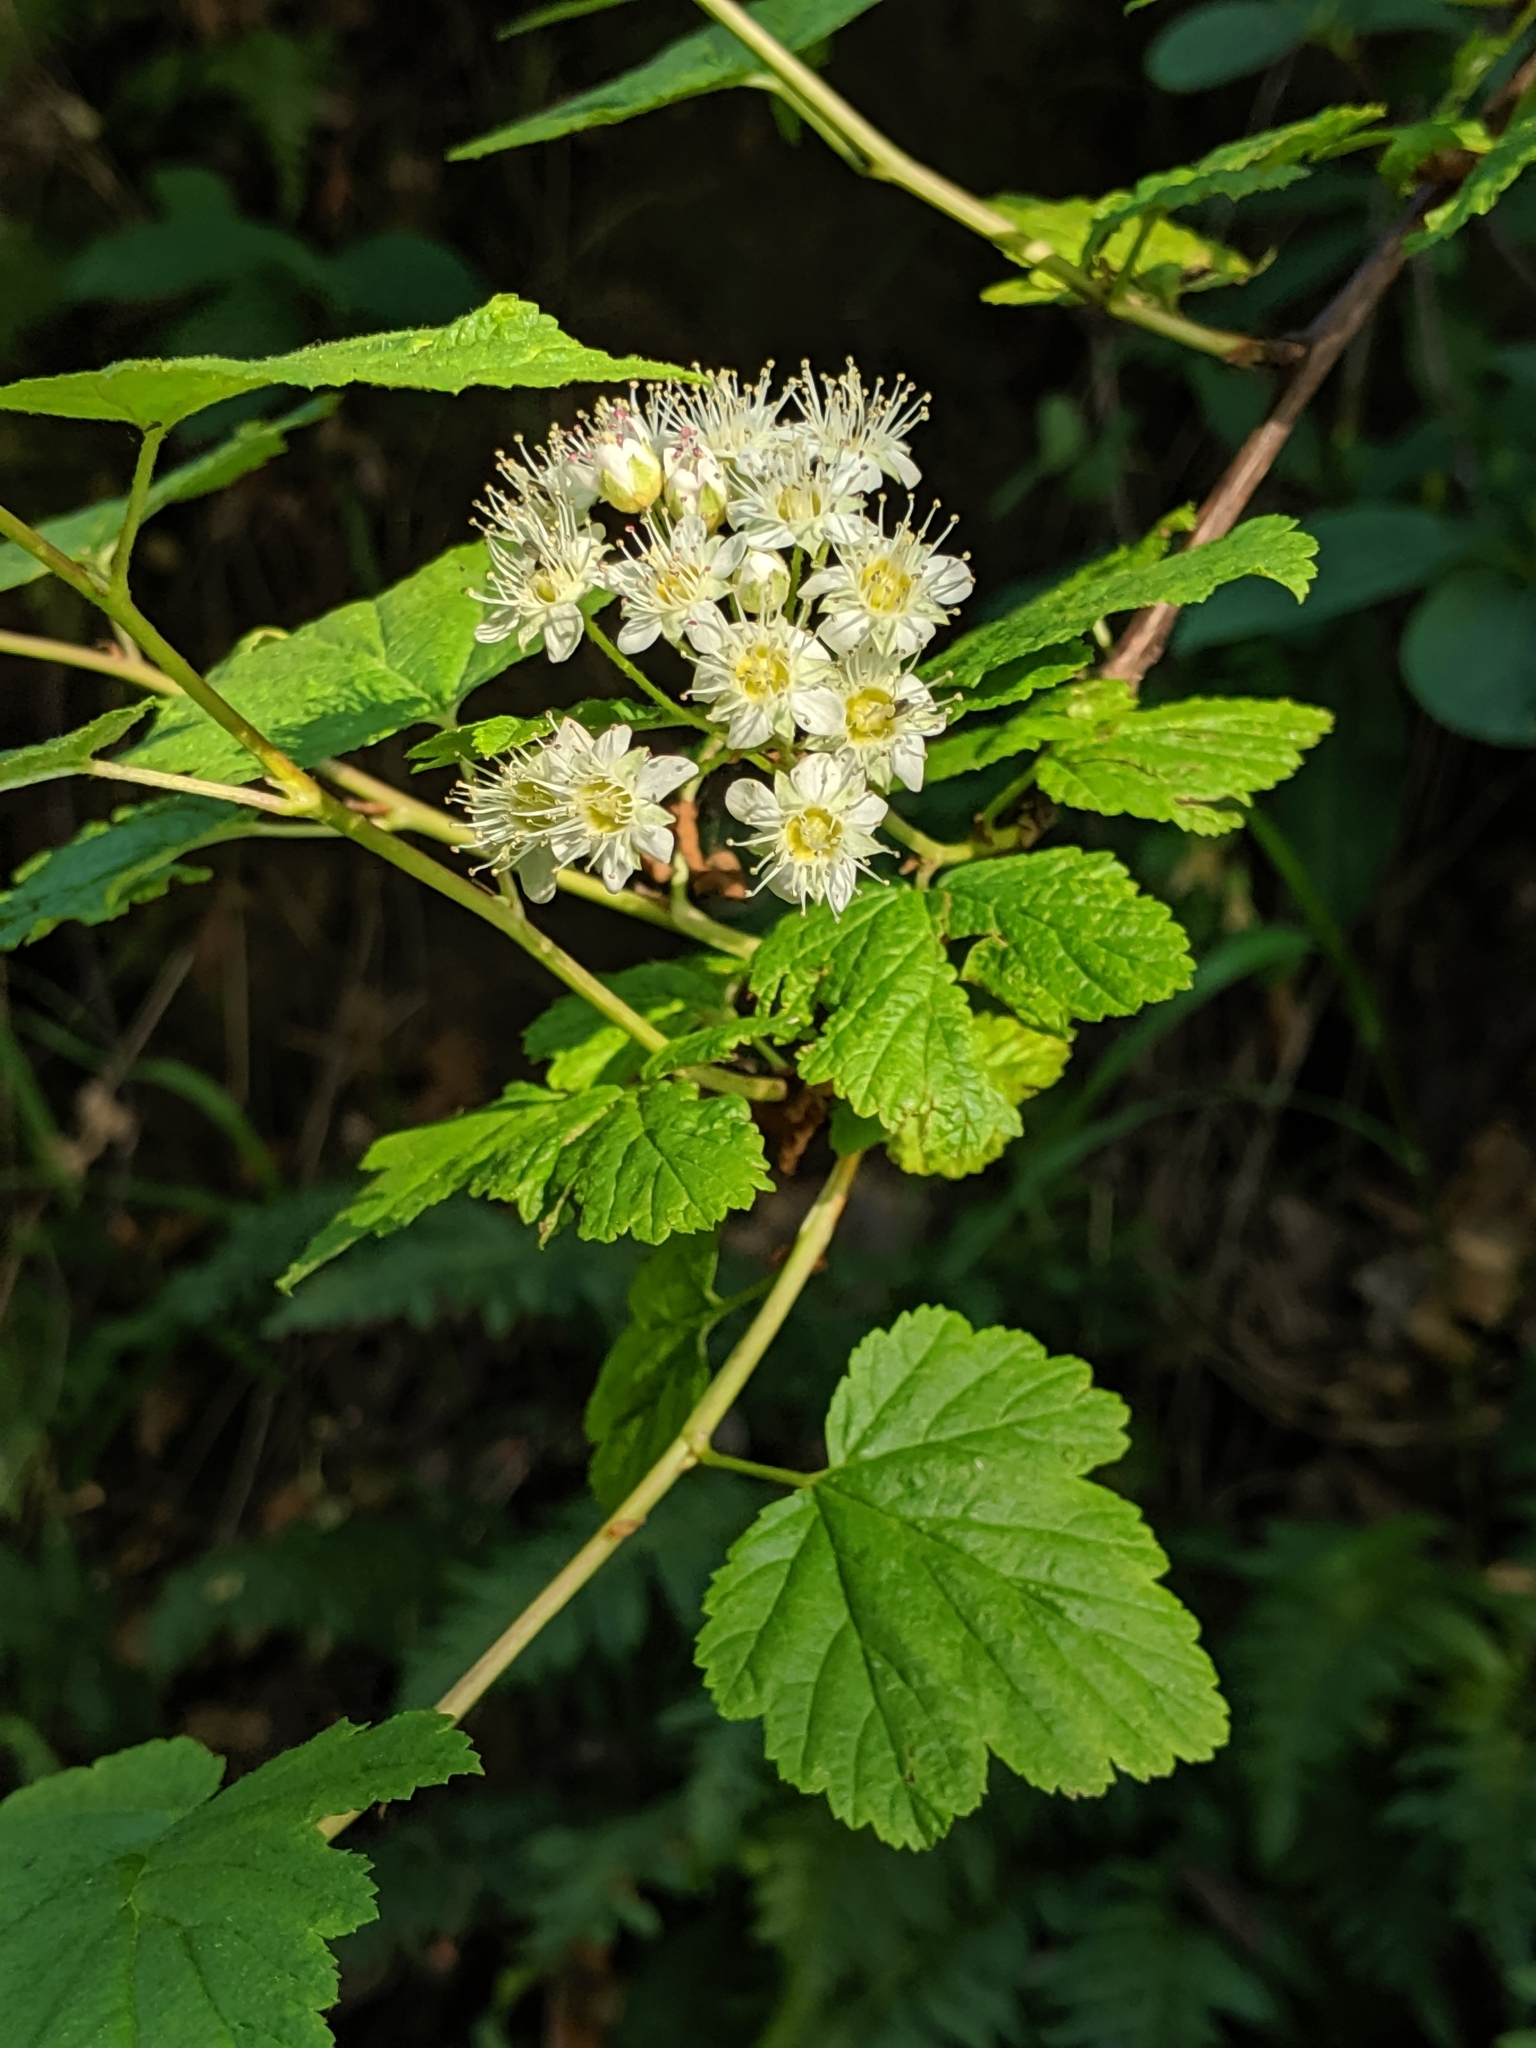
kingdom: Plantae
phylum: Tracheophyta
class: Magnoliopsida
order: Rosales
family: Rosaceae
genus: Physocarpus
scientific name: Physocarpus capitatus
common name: Pacific ninebark
